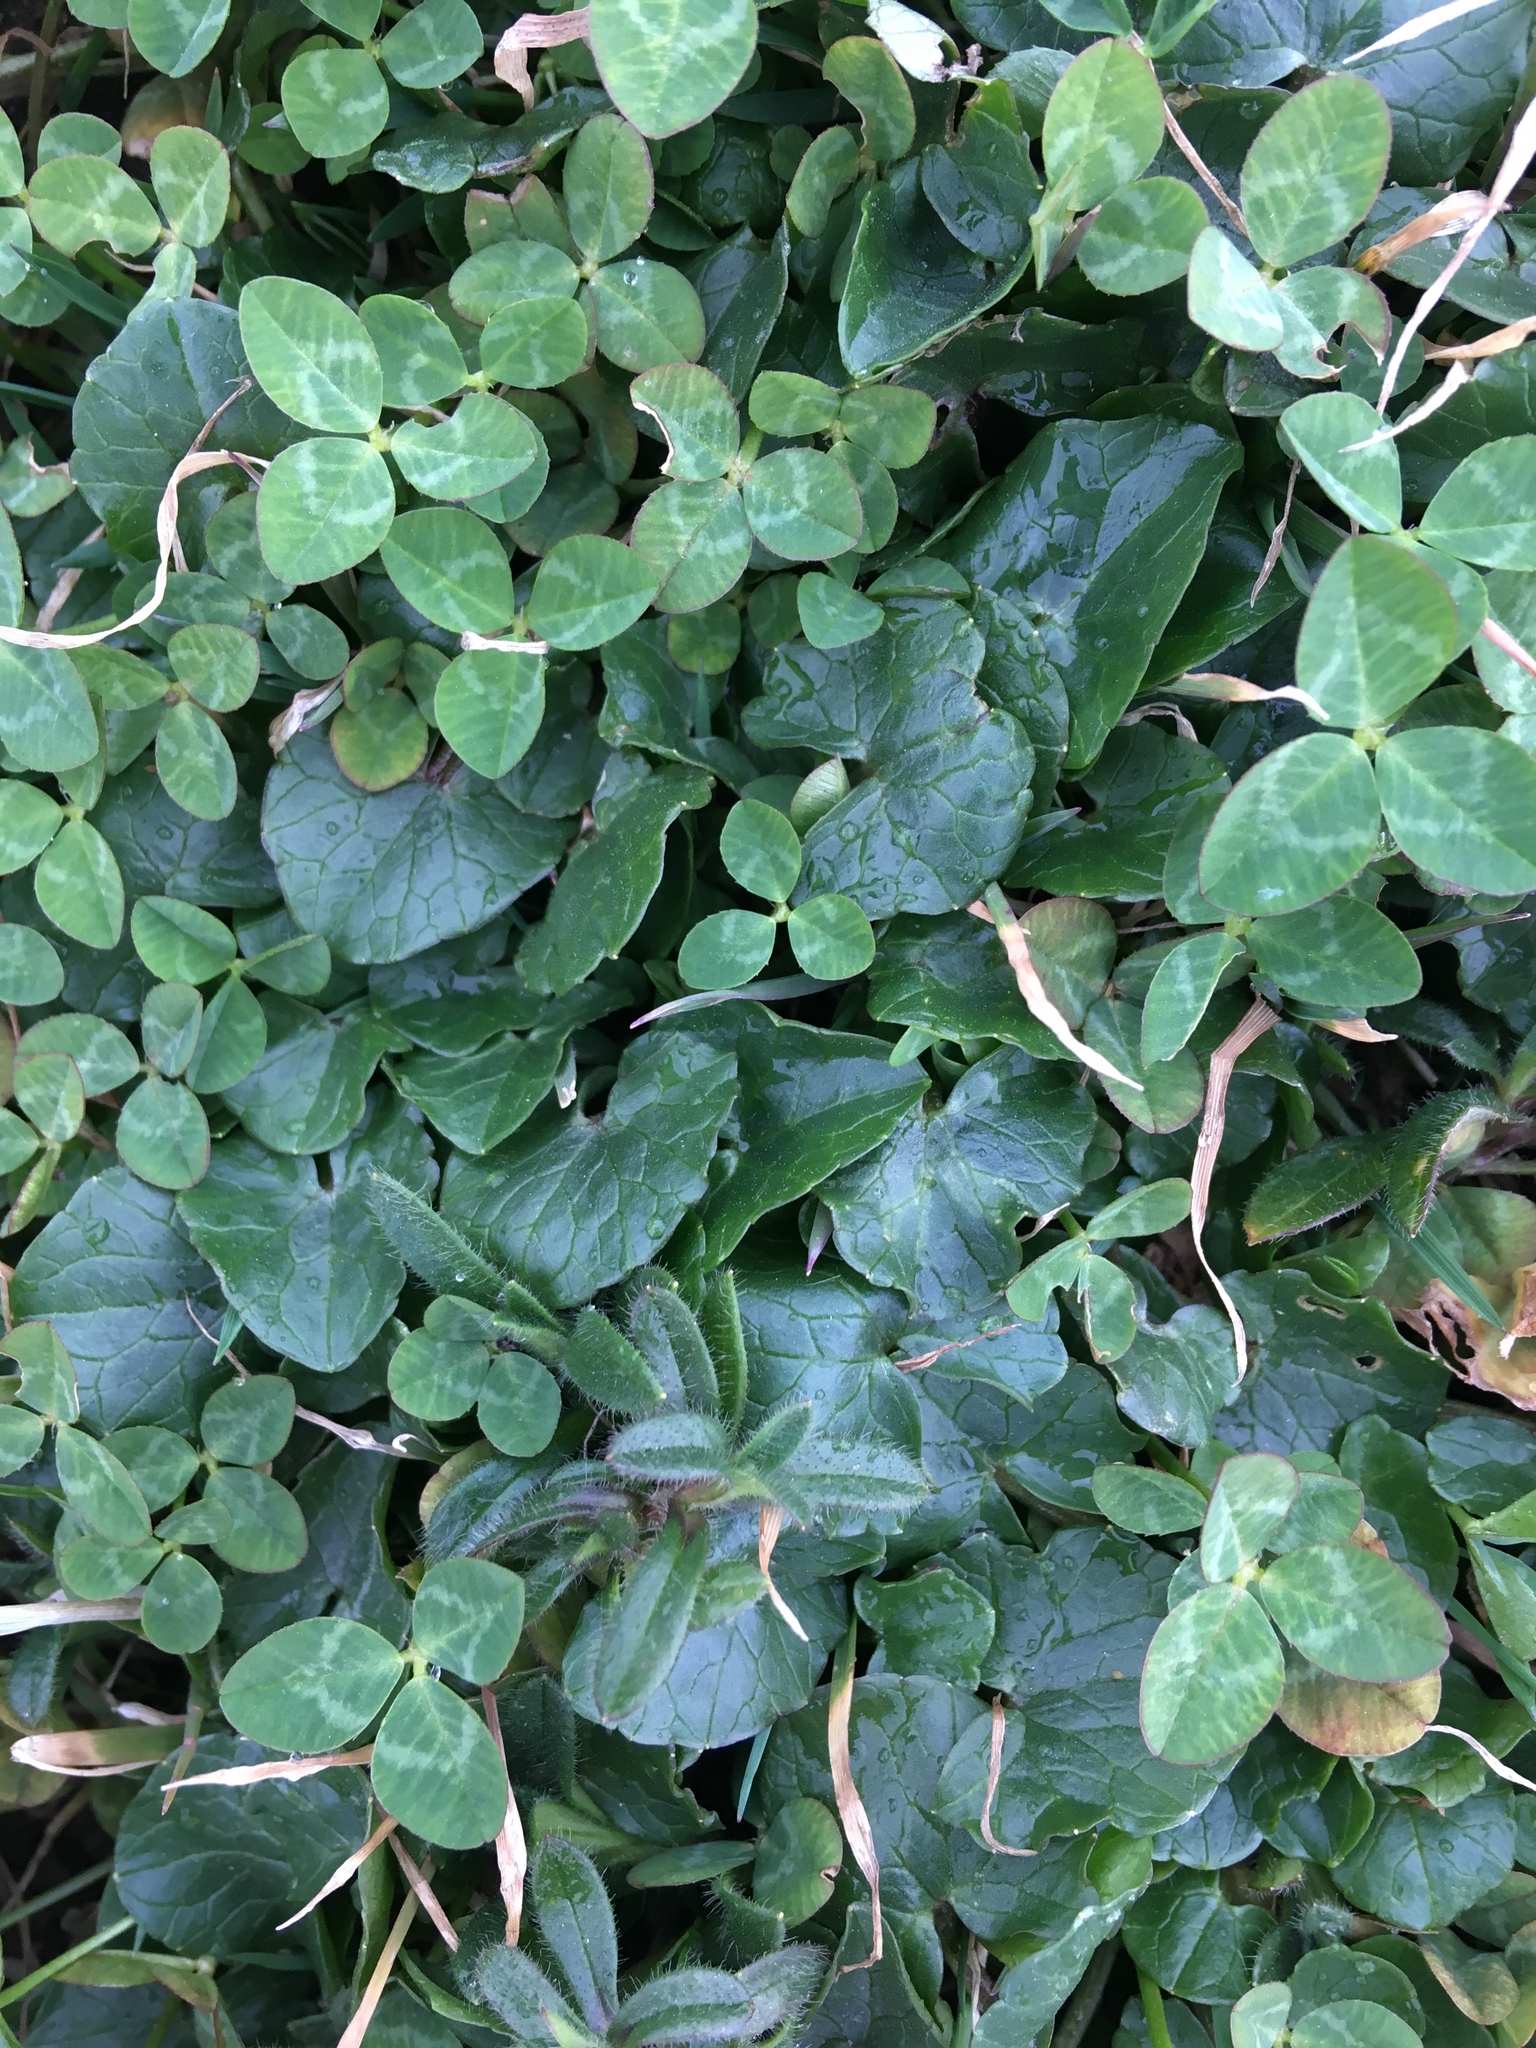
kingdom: Plantae
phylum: Tracheophyta
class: Magnoliopsida
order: Ranunculales
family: Ranunculaceae
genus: Ficaria
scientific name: Ficaria verna
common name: Lesser celandine
